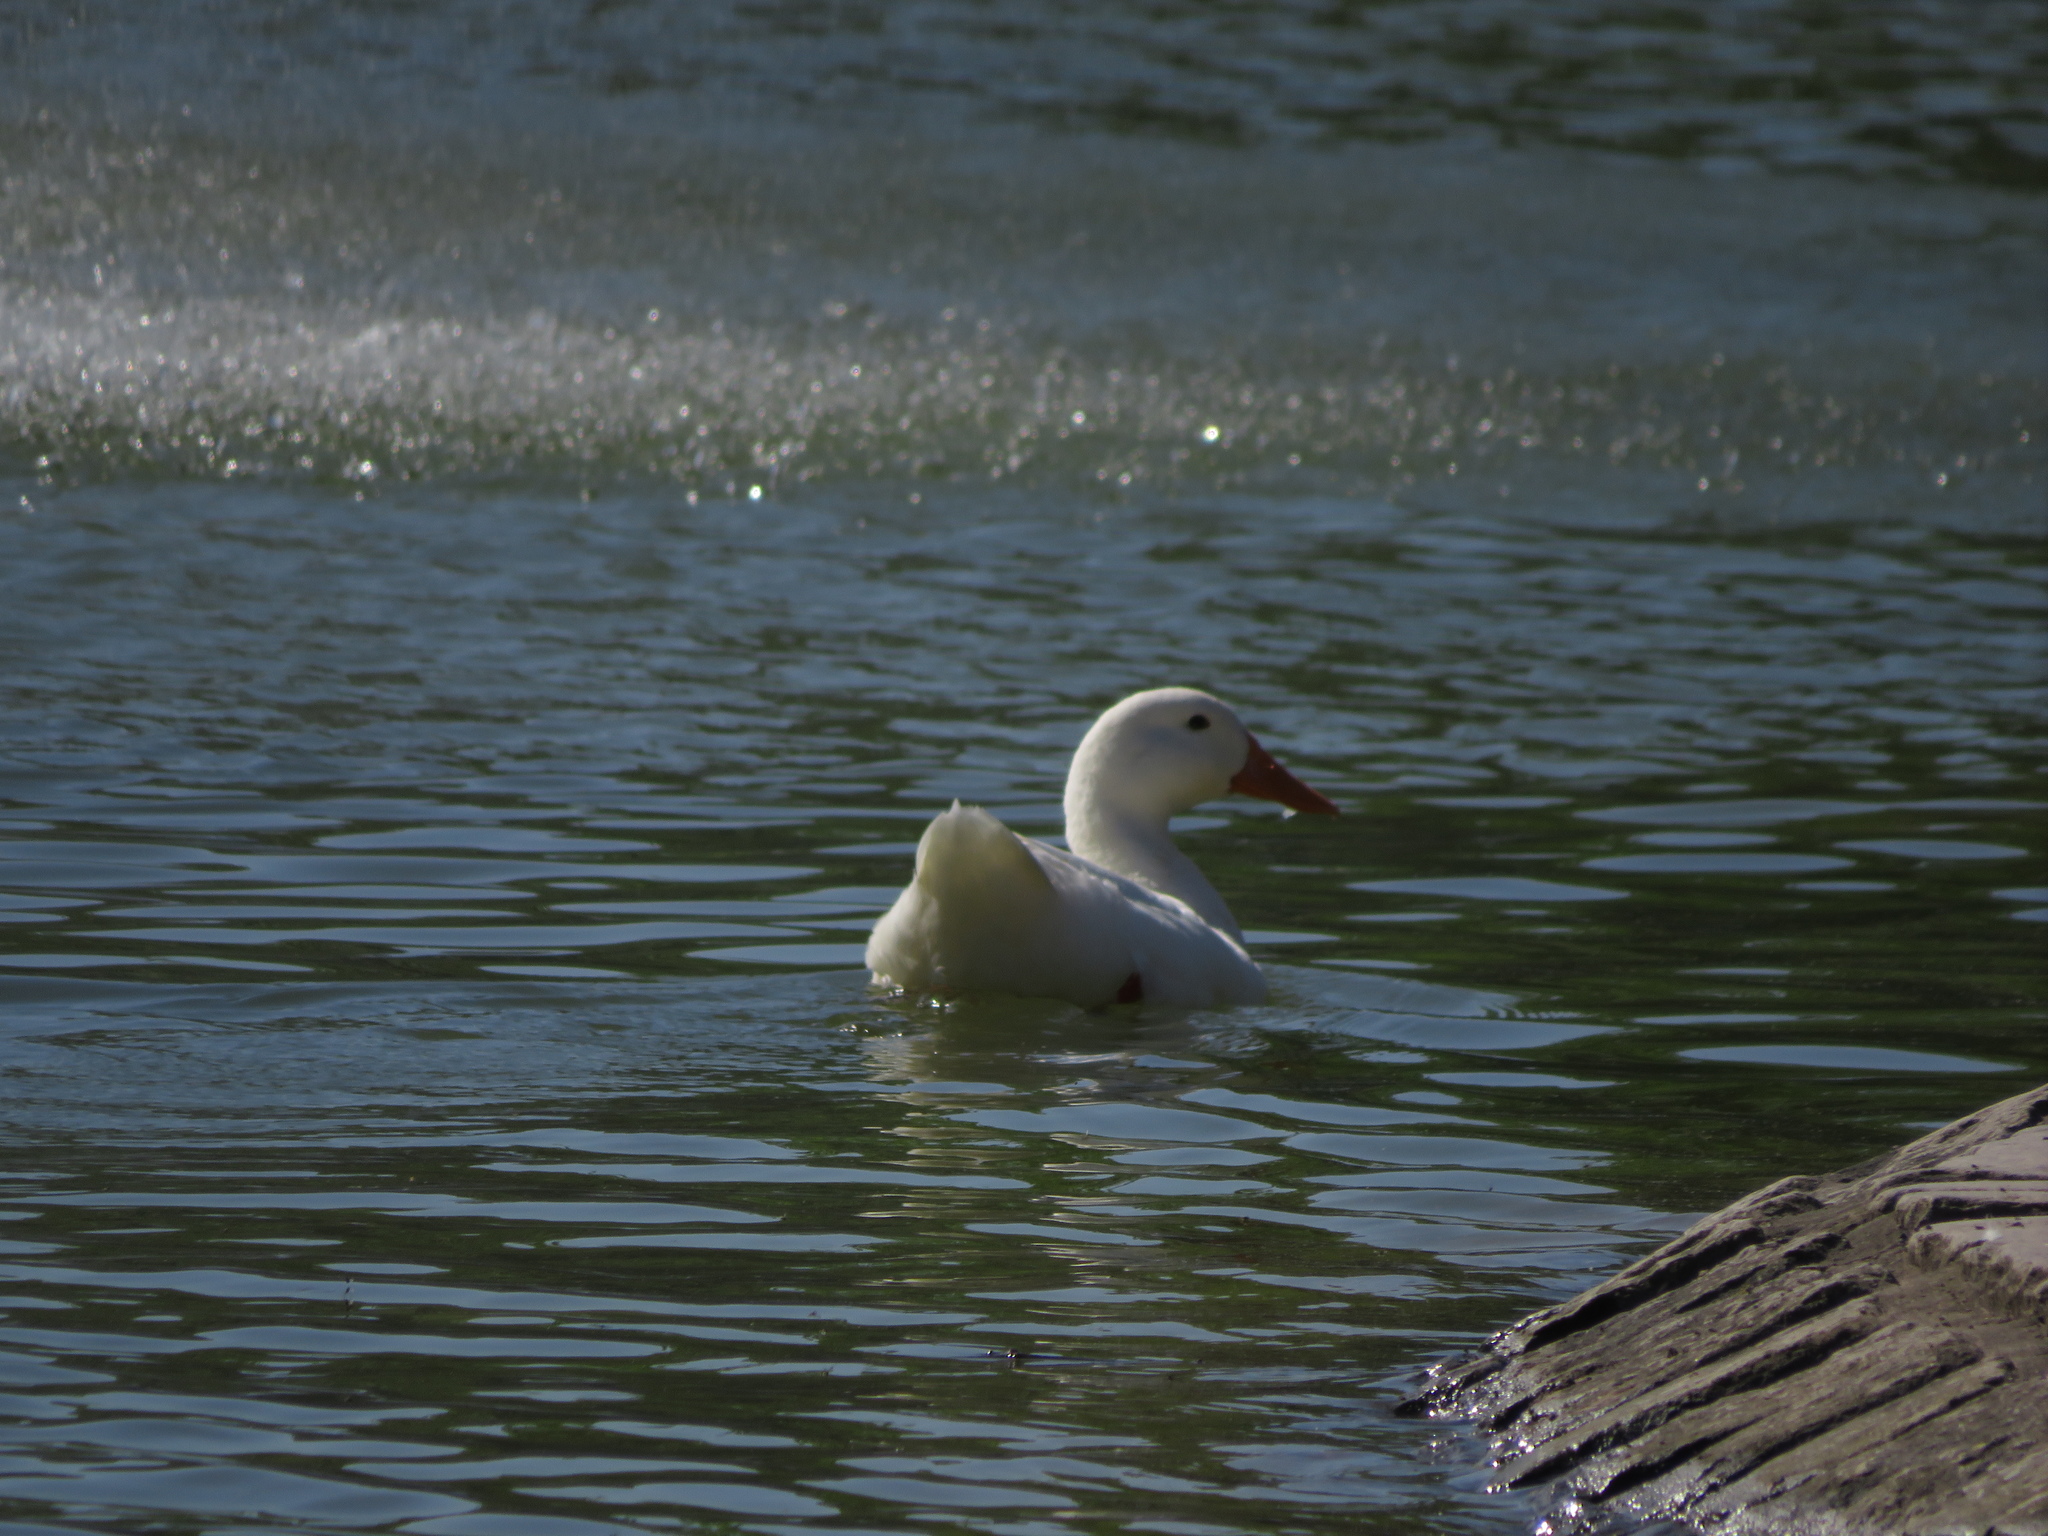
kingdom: Animalia
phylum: Chordata
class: Aves
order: Anseriformes
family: Anatidae
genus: Anas
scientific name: Anas platyrhynchos
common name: Mallard
